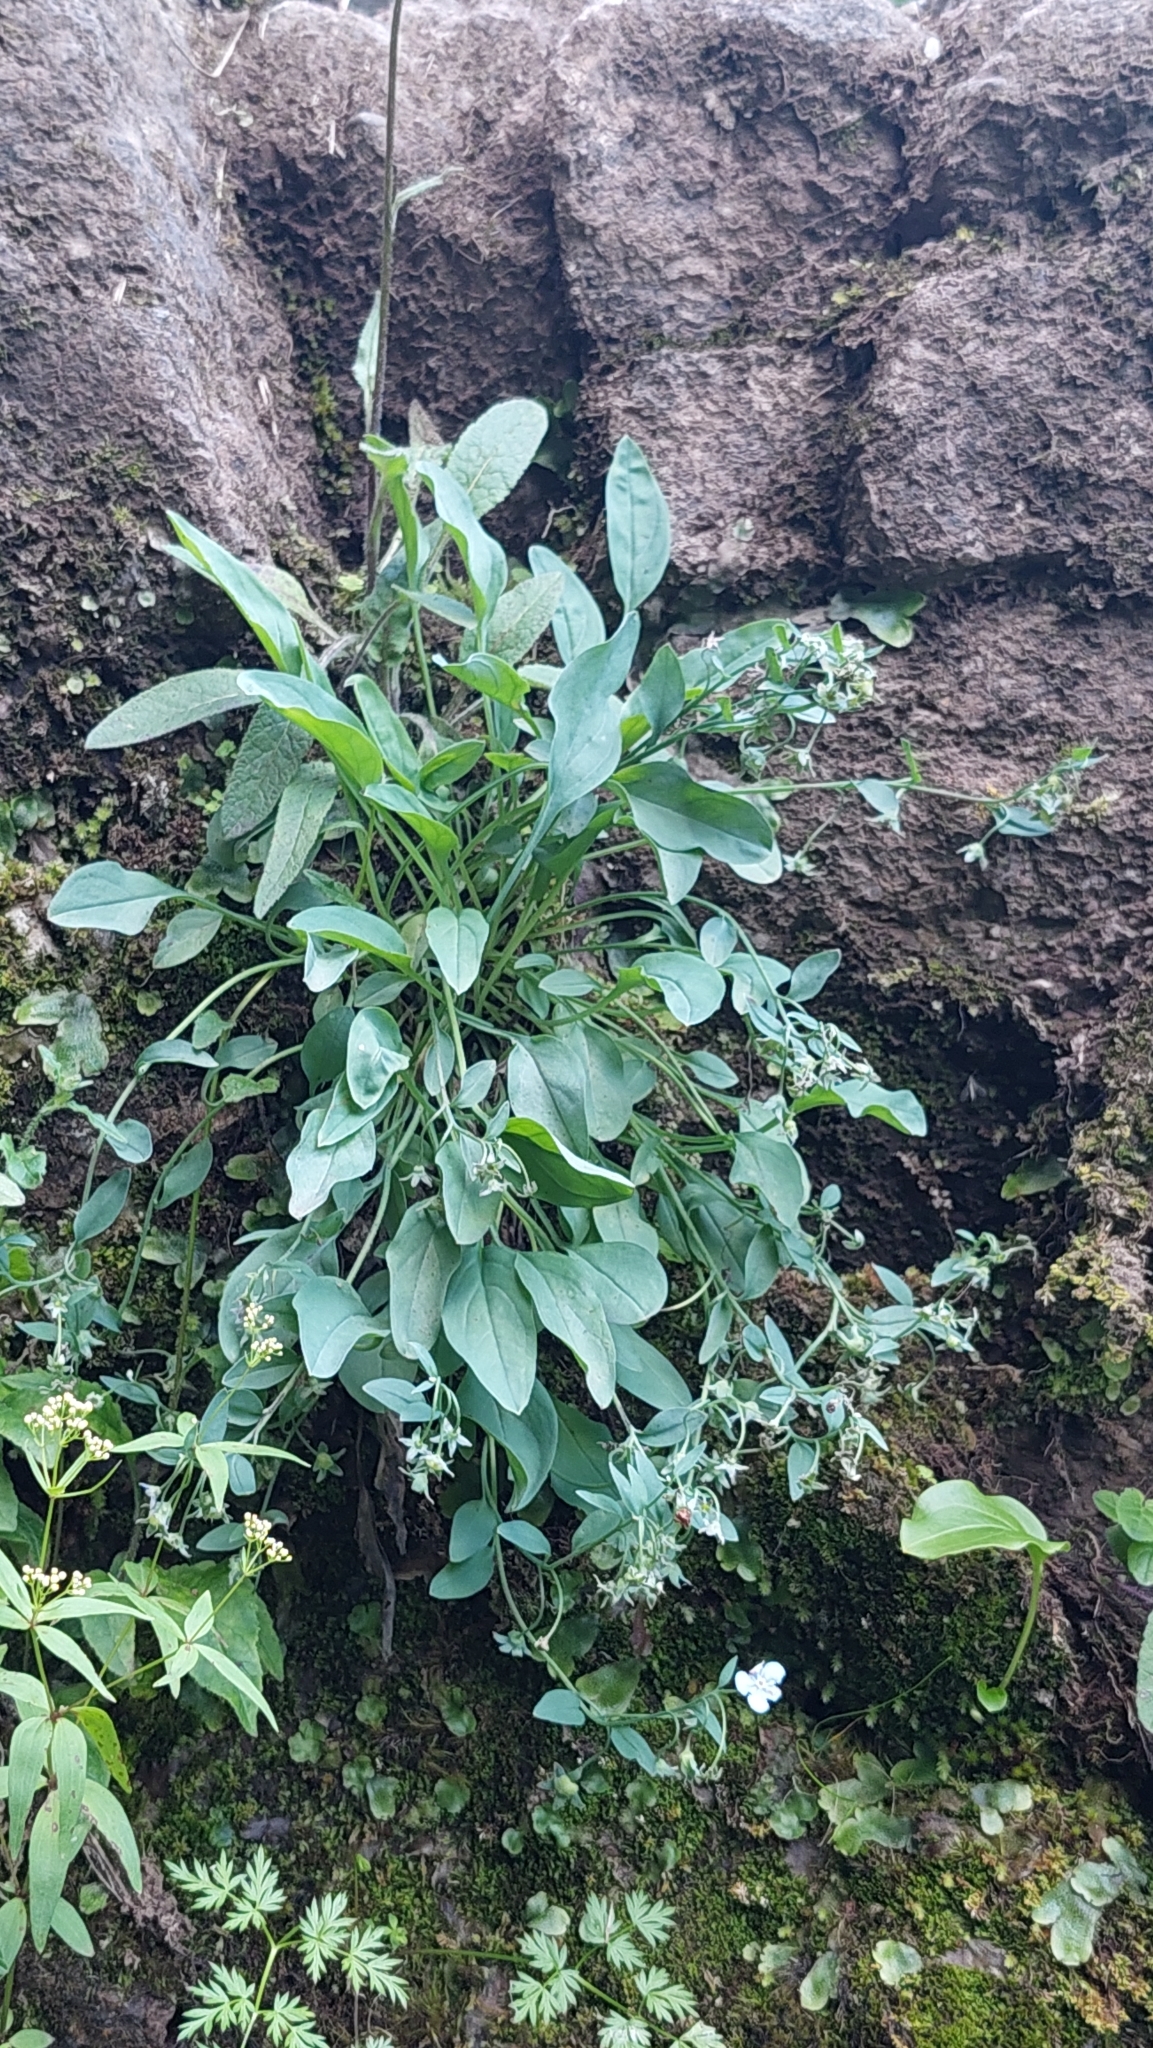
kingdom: Plantae
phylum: Tracheophyta
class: Magnoliopsida
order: Boraginales
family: Boraginaceae
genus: Omphalodes
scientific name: Omphalodes rupestris
